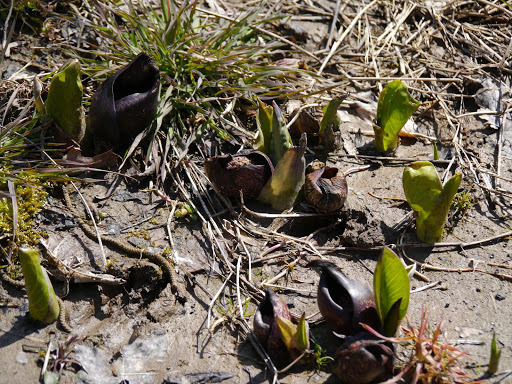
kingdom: Plantae
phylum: Tracheophyta
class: Liliopsida
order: Alismatales
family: Araceae
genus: Symplocarpus
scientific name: Symplocarpus foetidus
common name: Eastern skunk cabbage
